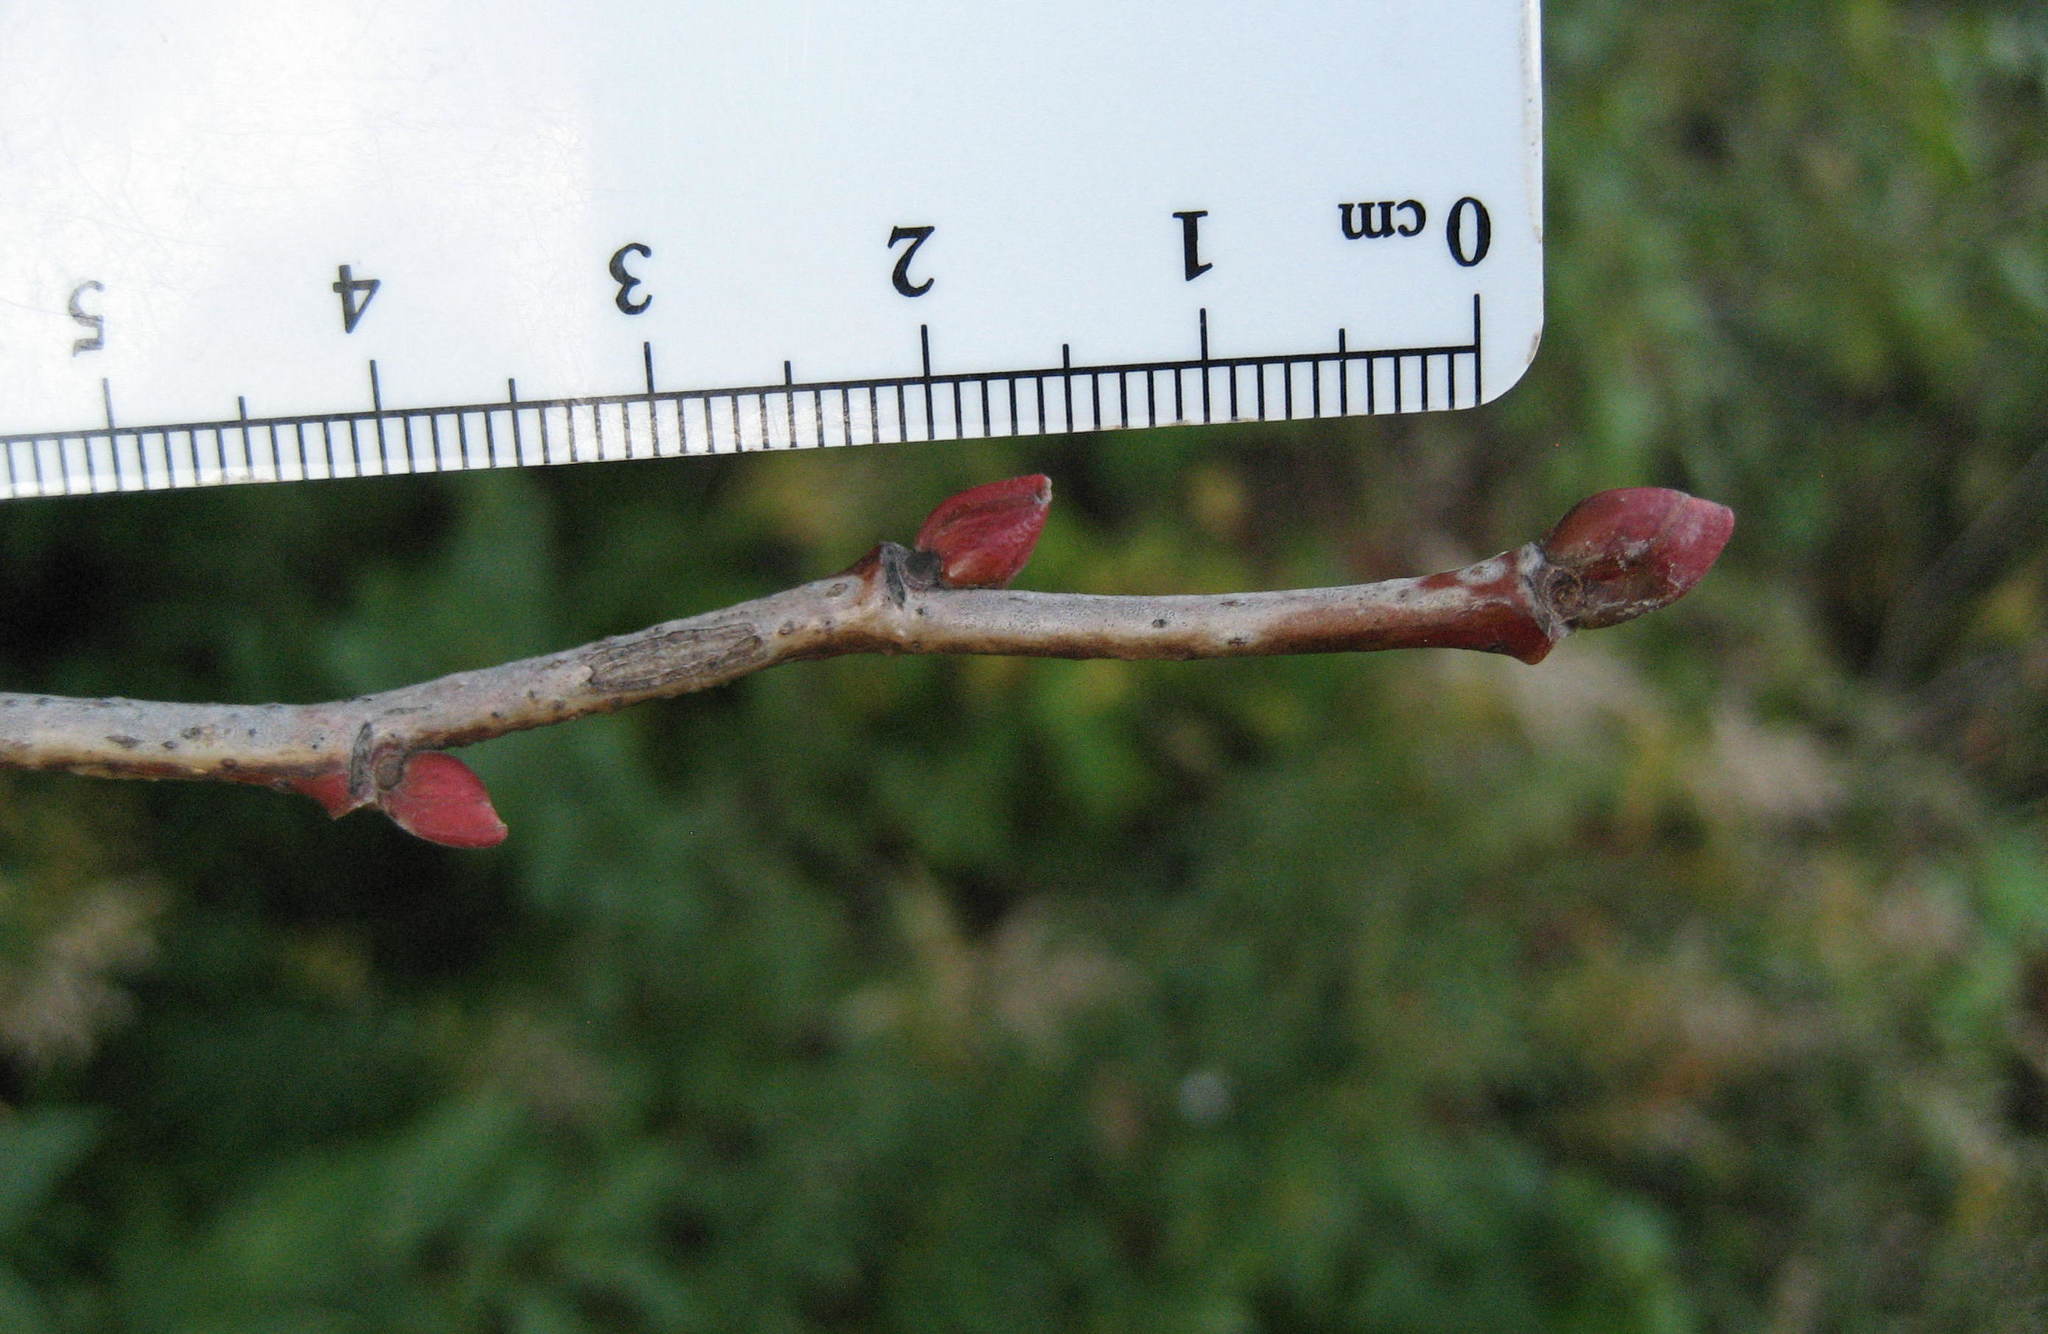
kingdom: Plantae
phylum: Tracheophyta
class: Magnoliopsida
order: Malvales
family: Malvaceae
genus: Tilia
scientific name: Tilia americana
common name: Basswood
